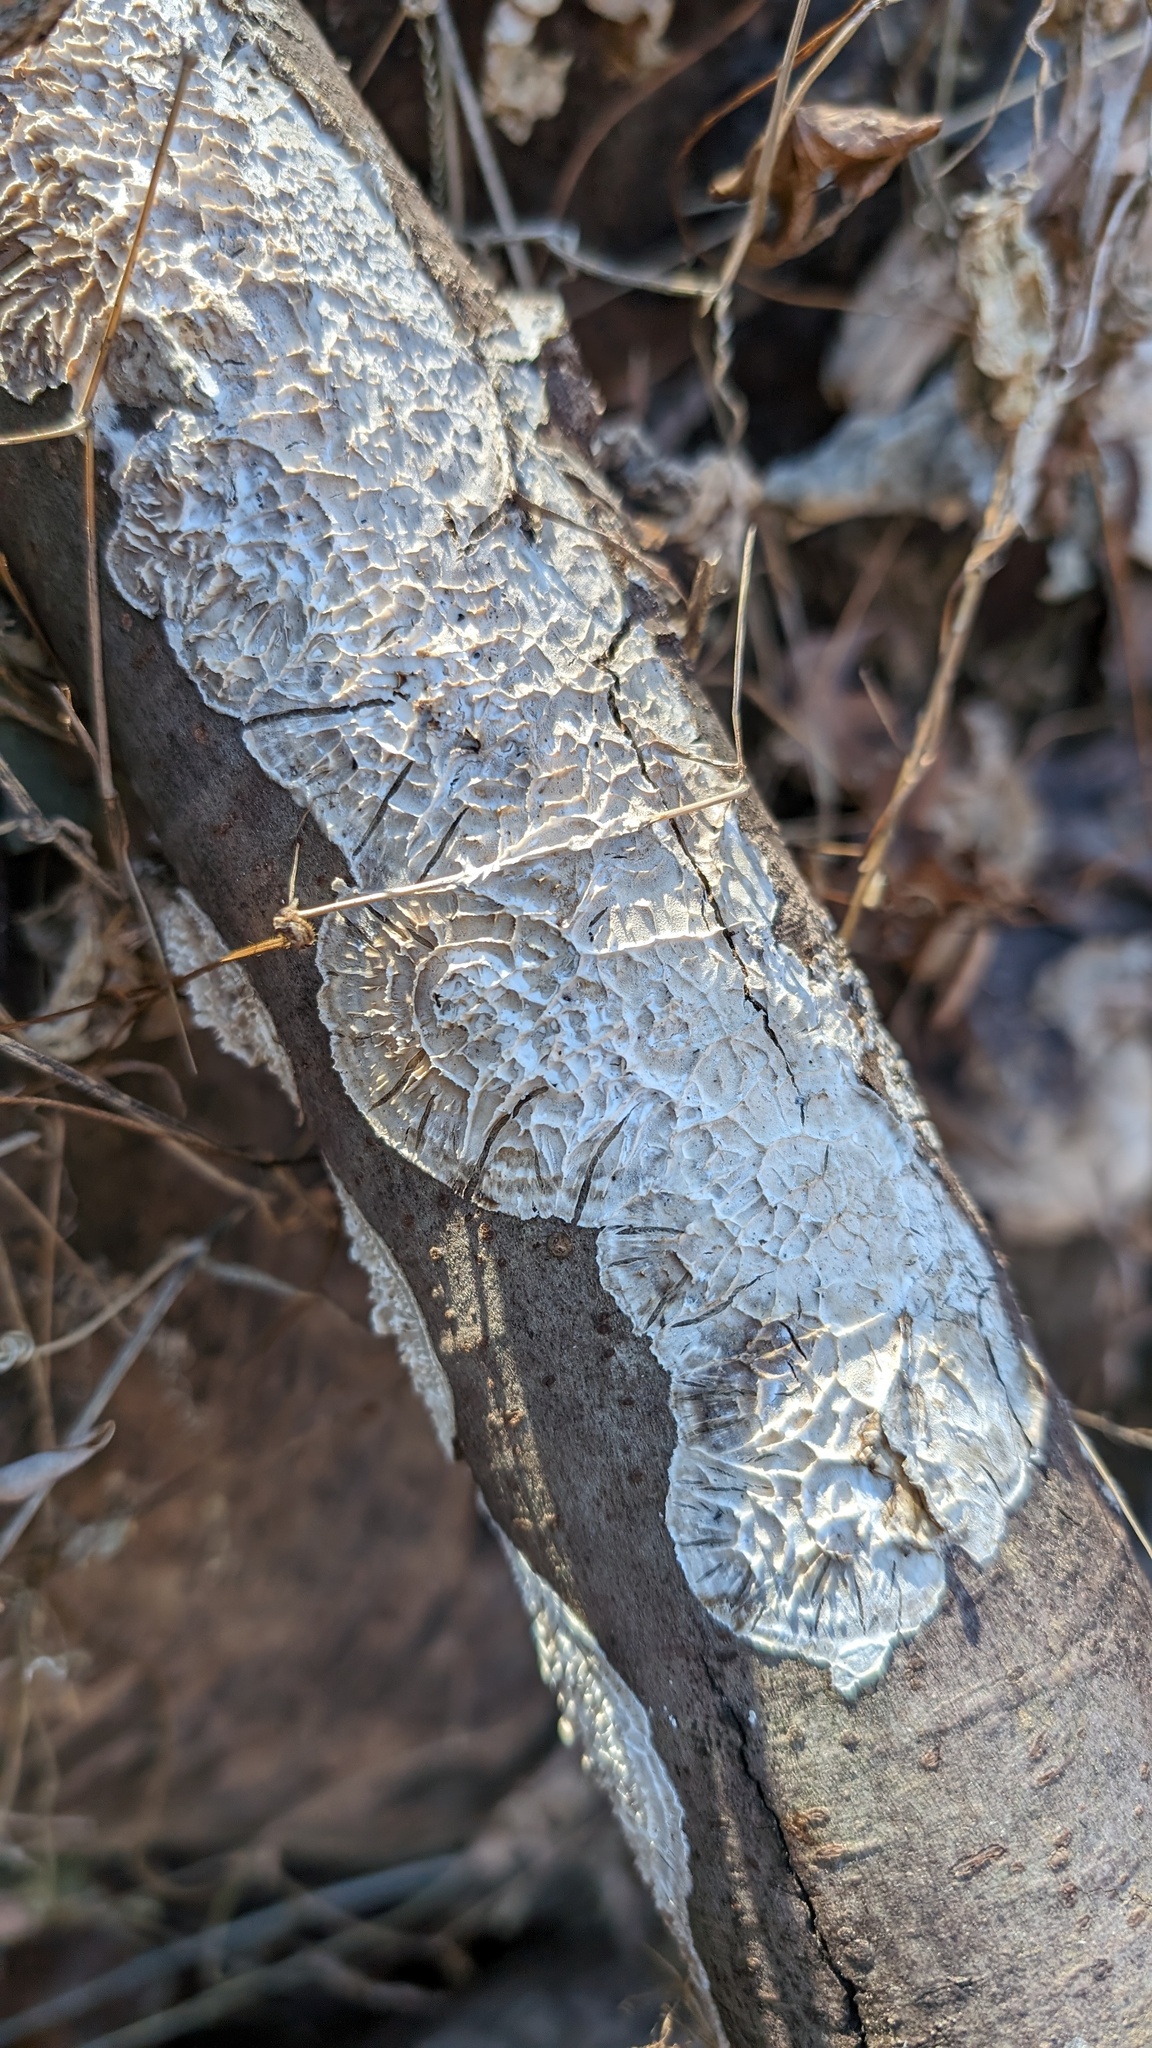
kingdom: Fungi
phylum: Basidiomycota
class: Agaricomycetes
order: Polyporales
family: Polyporaceae
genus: Lopharia
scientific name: Lopharia cinerascens
